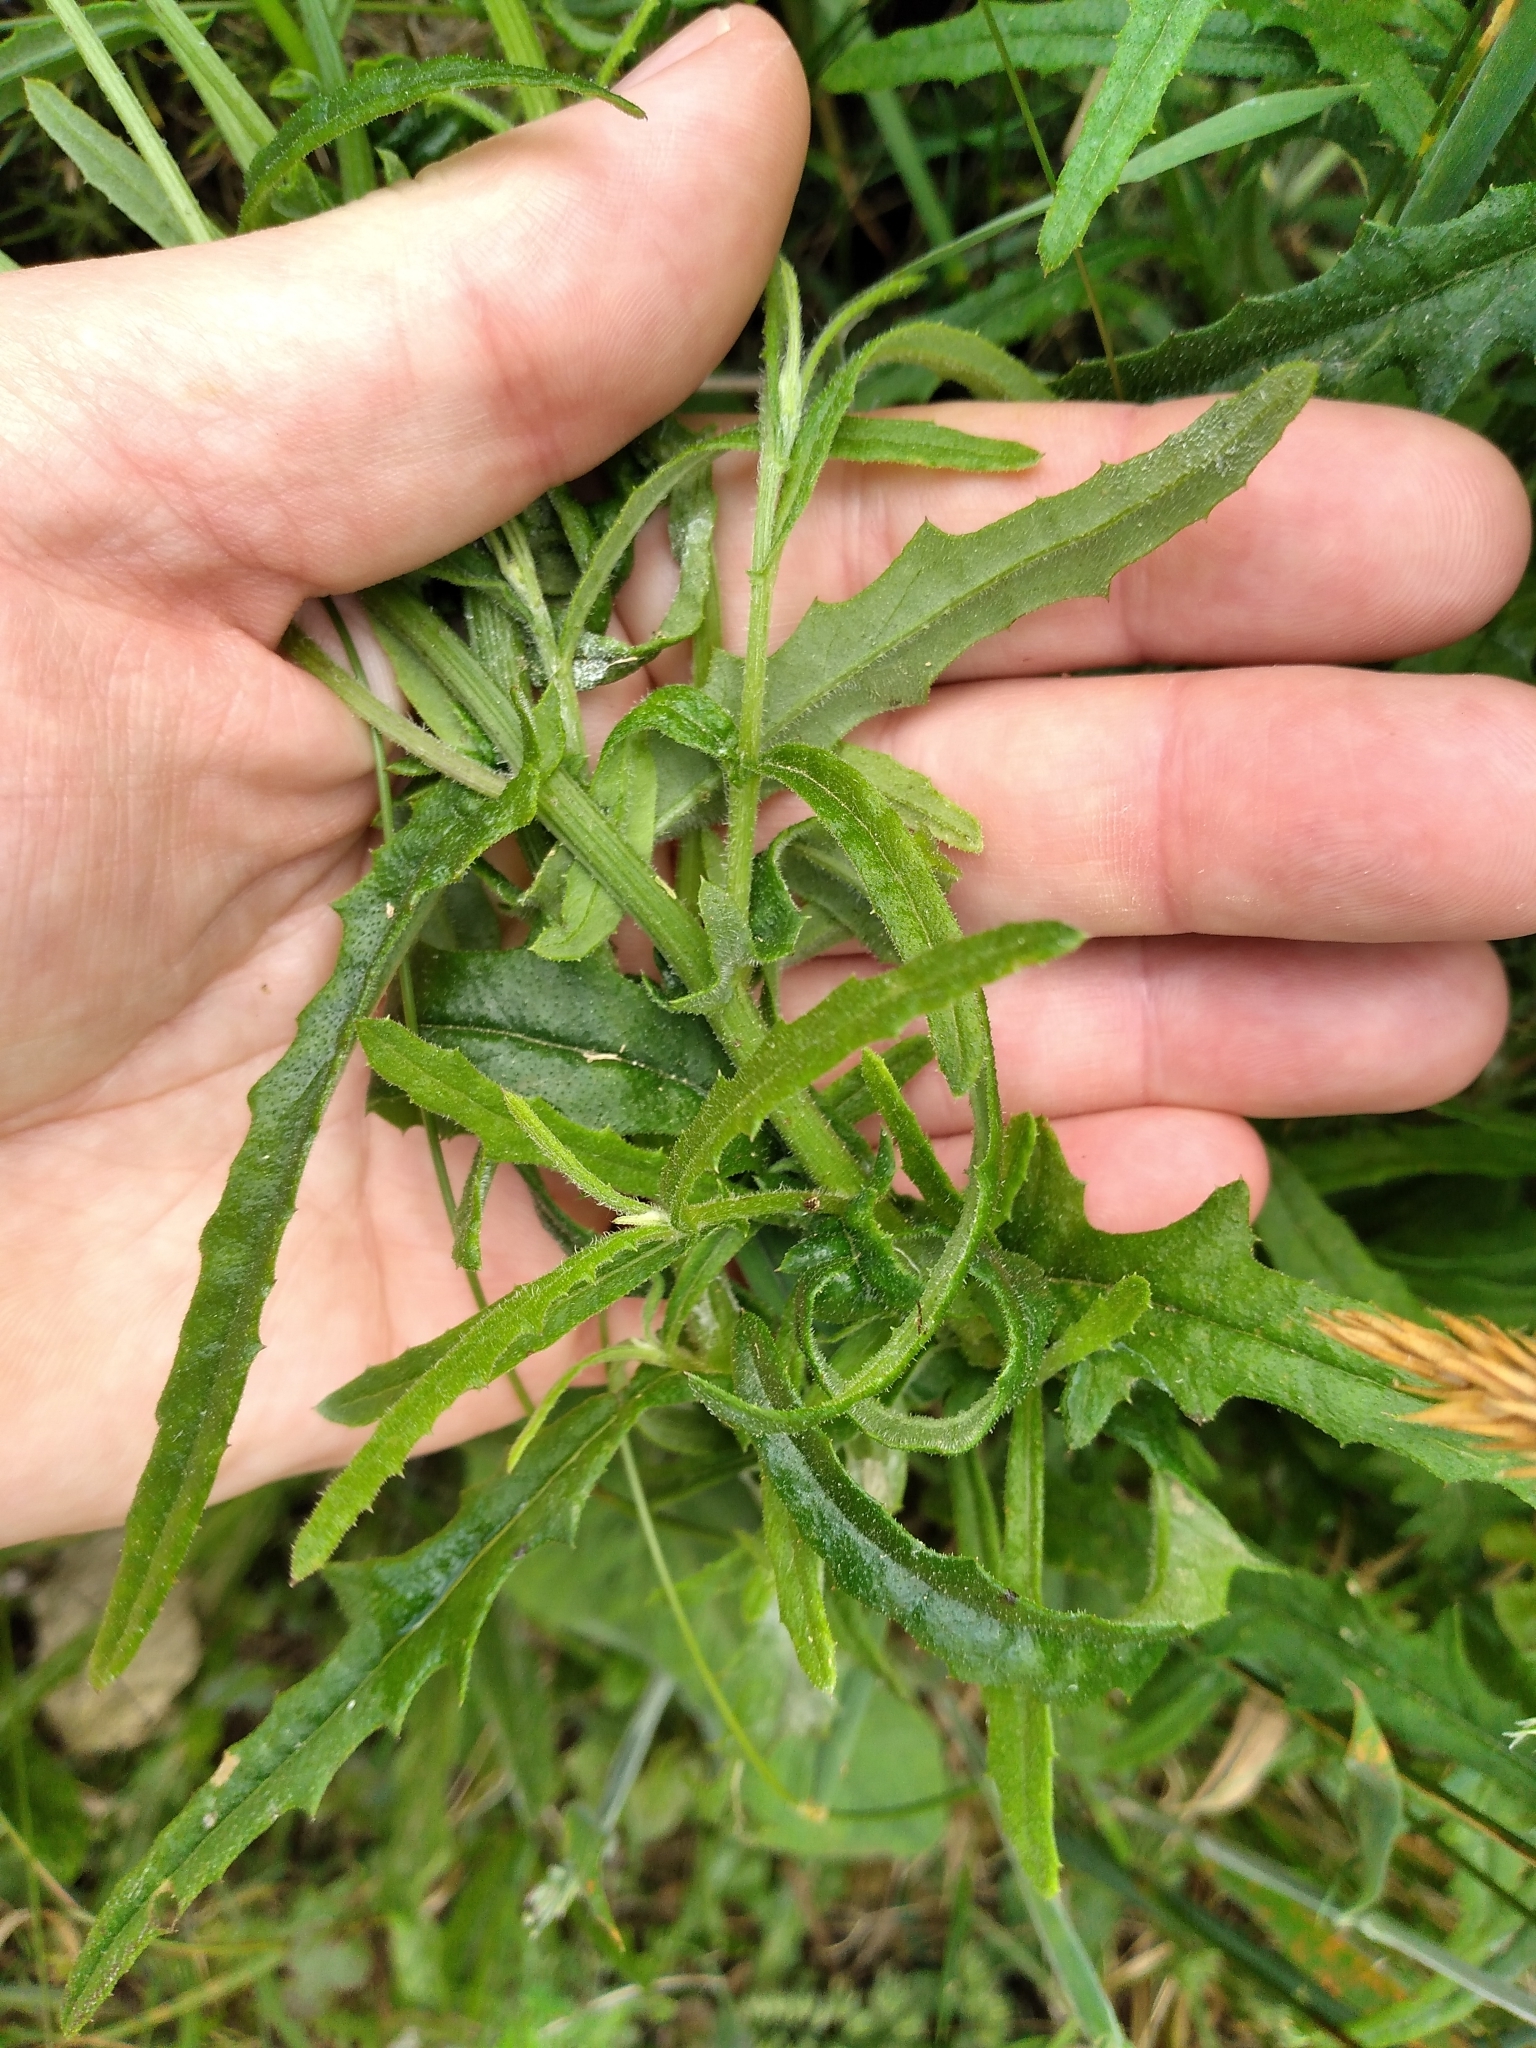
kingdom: Plantae
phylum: Tracheophyta
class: Magnoliopsida
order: Asterales
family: Asteraceae
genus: Senecio
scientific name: Senecio hispidulus
